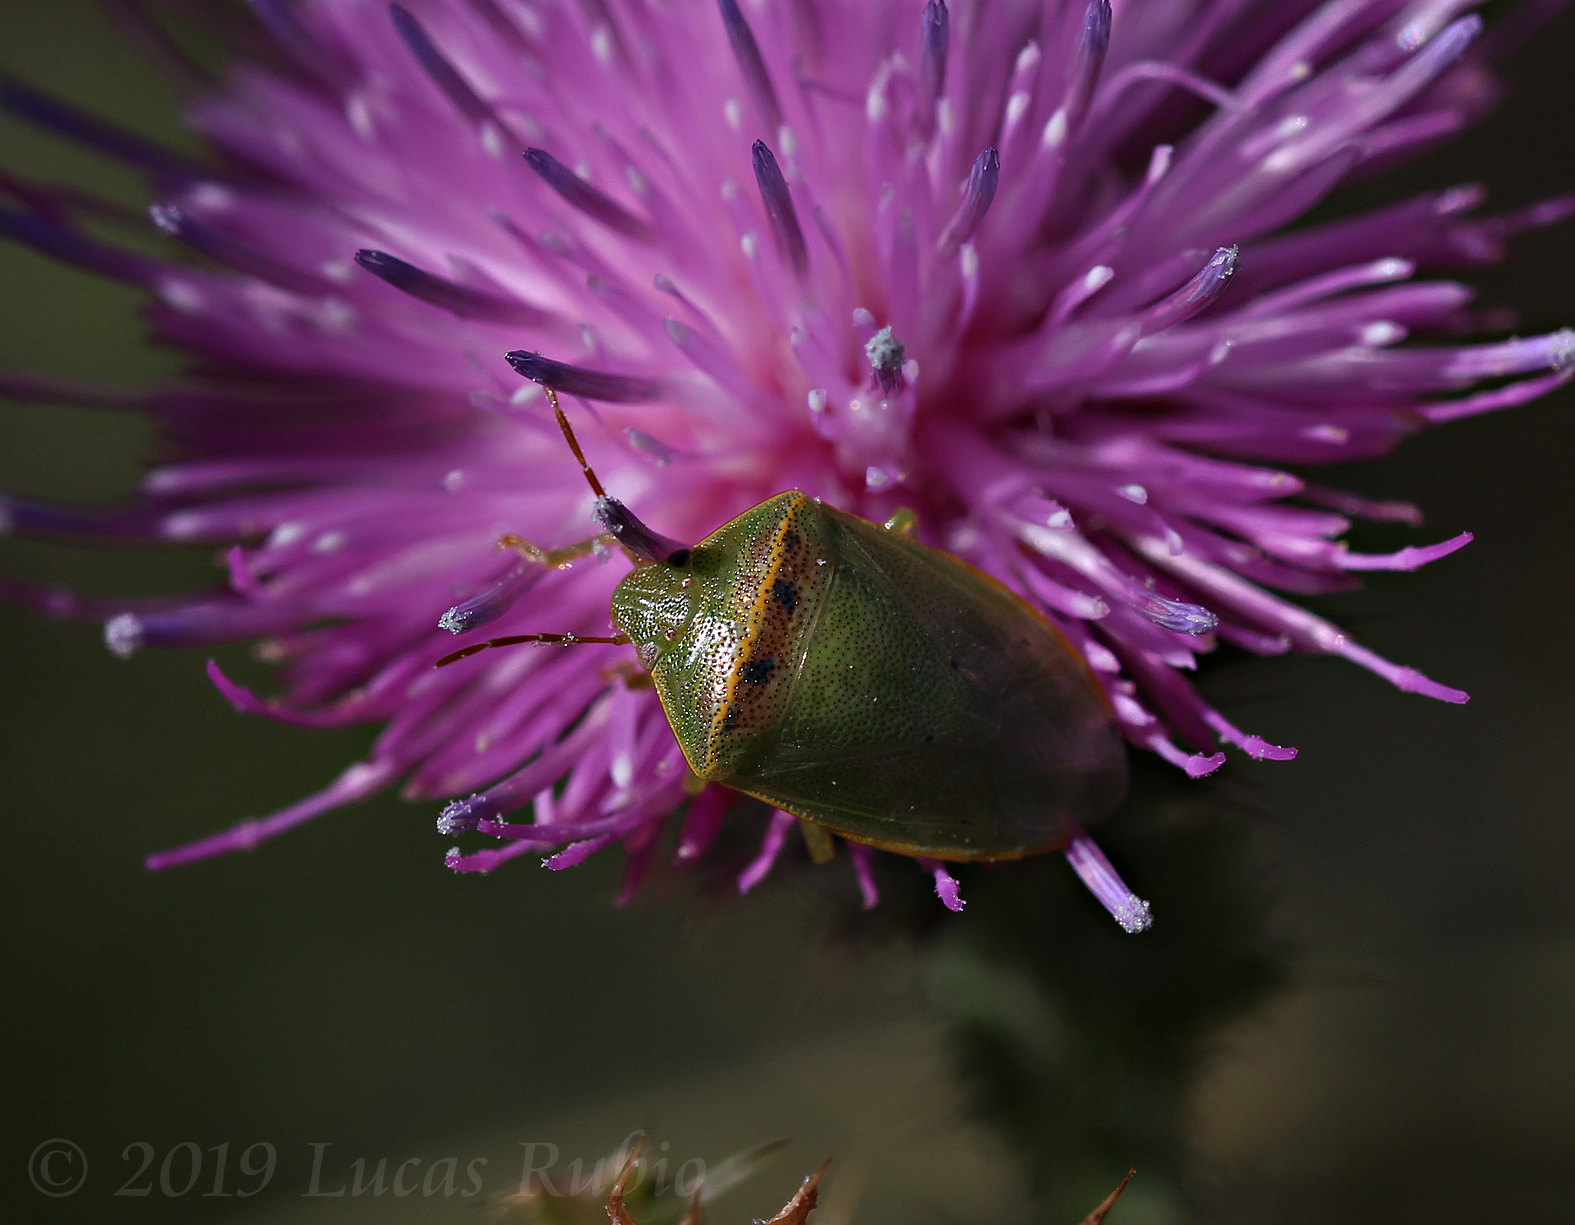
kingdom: Animalia
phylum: Arthropoda
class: Insecta
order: Hemiptera
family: Pentatomidae
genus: Piezodorus
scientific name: Piezodorus guildinii
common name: Redbanded stink bug
